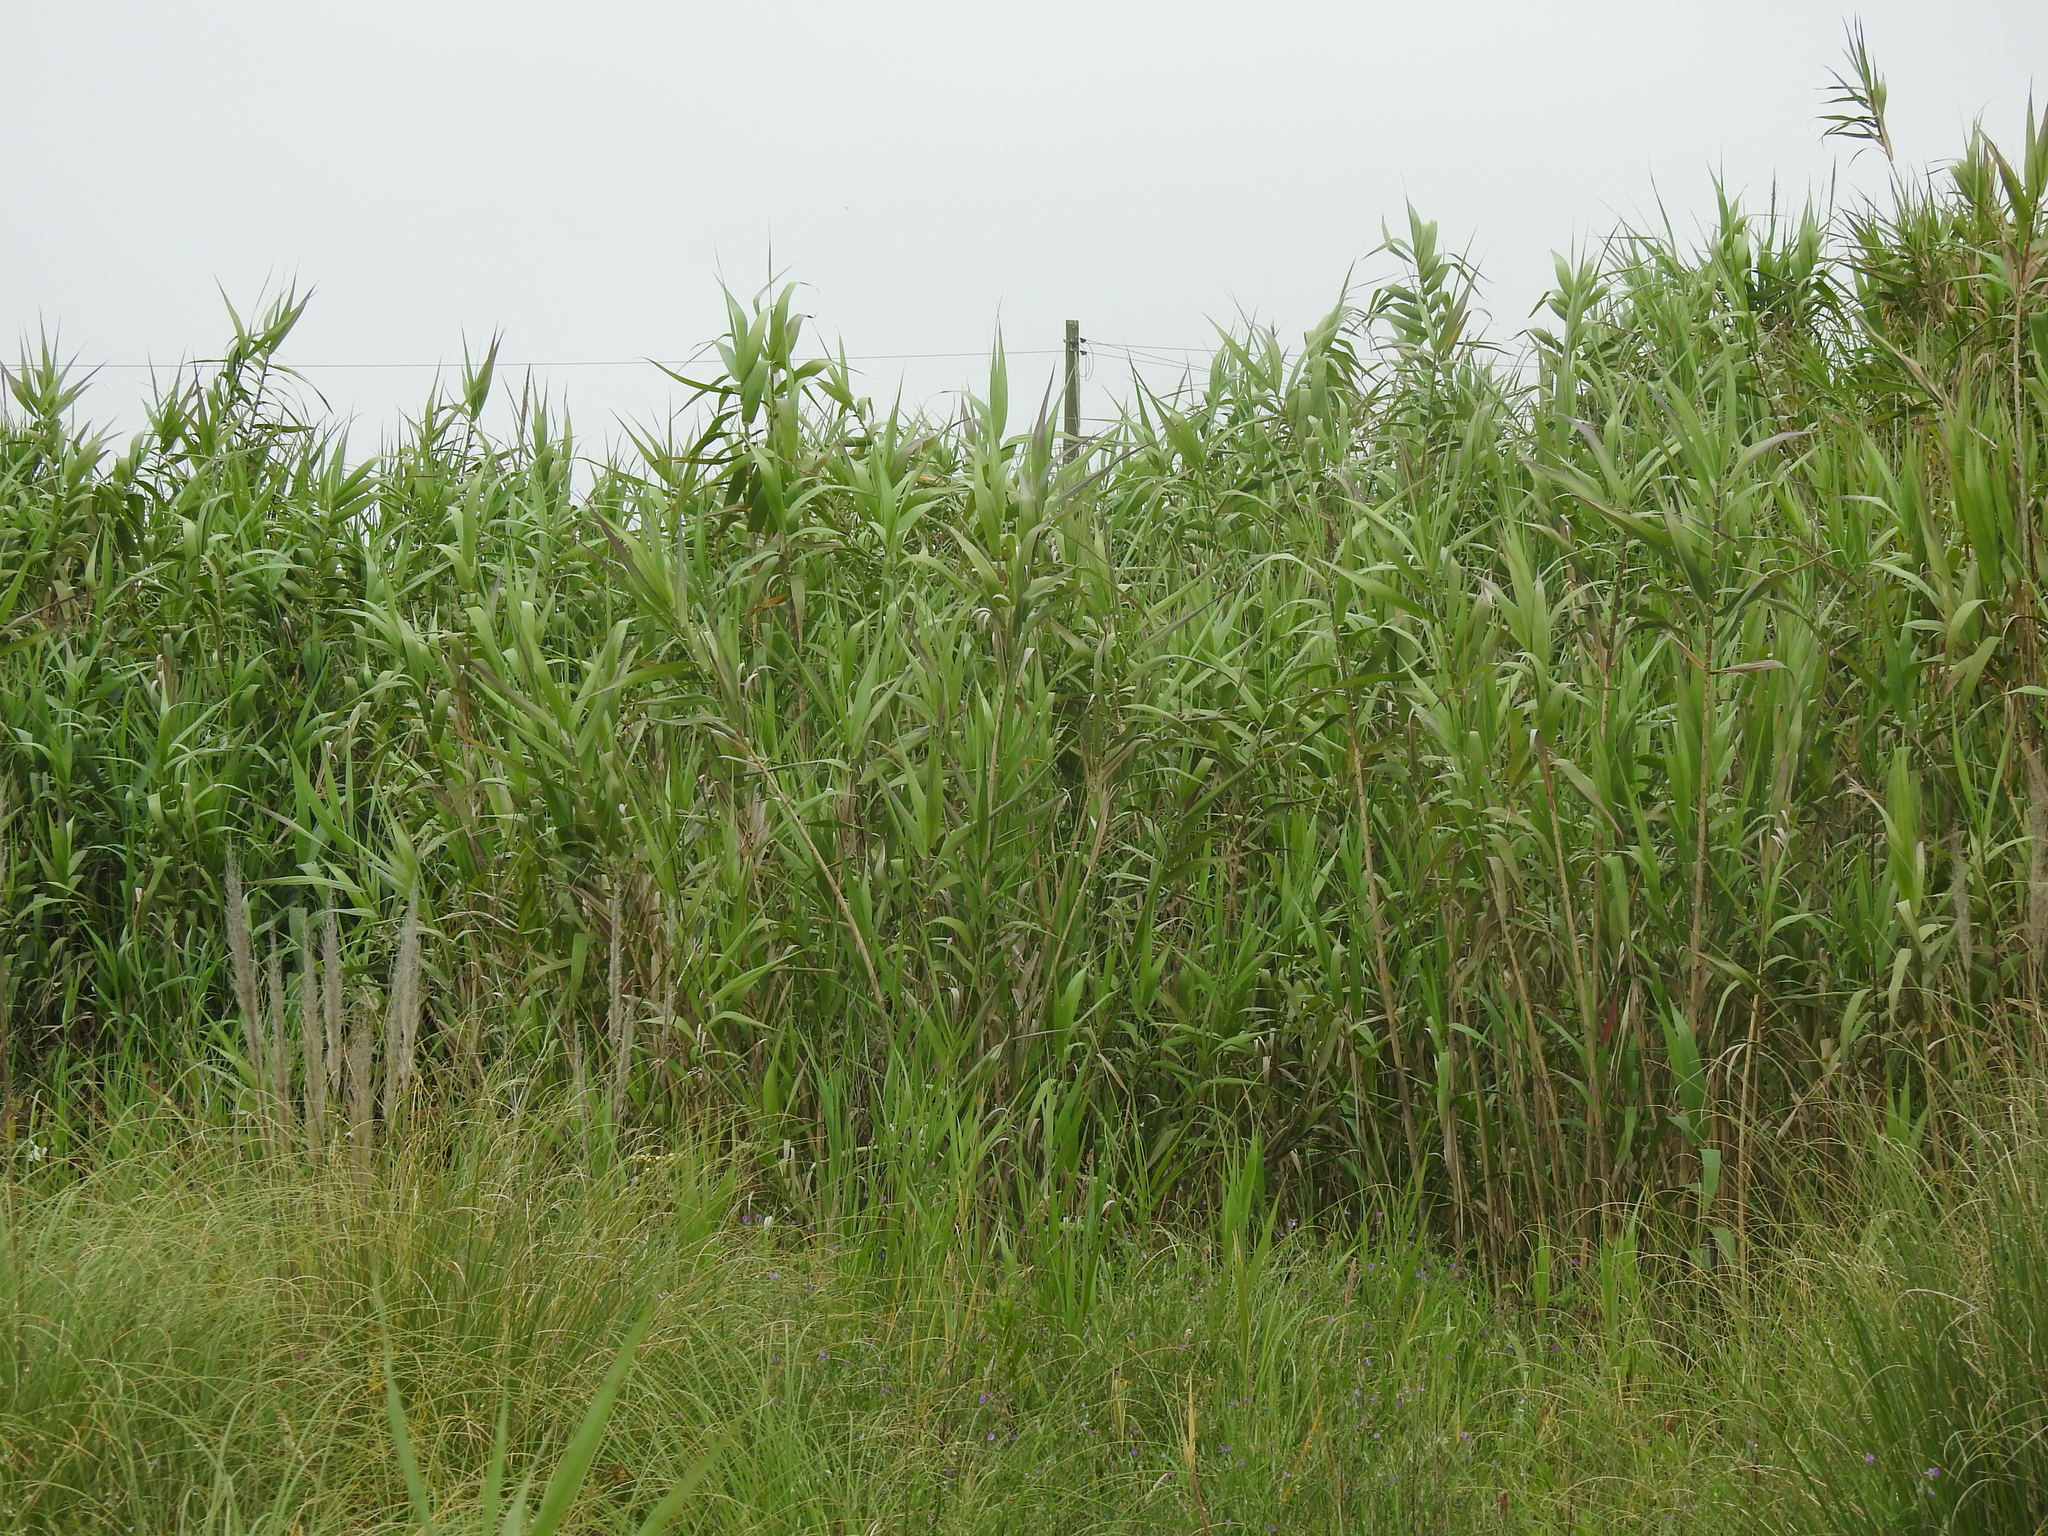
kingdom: Plantae
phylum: Tracheophyta
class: Liliopsida
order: Poales
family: Poaceae
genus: Arundo
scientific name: Arundo donax
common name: Giant reed
